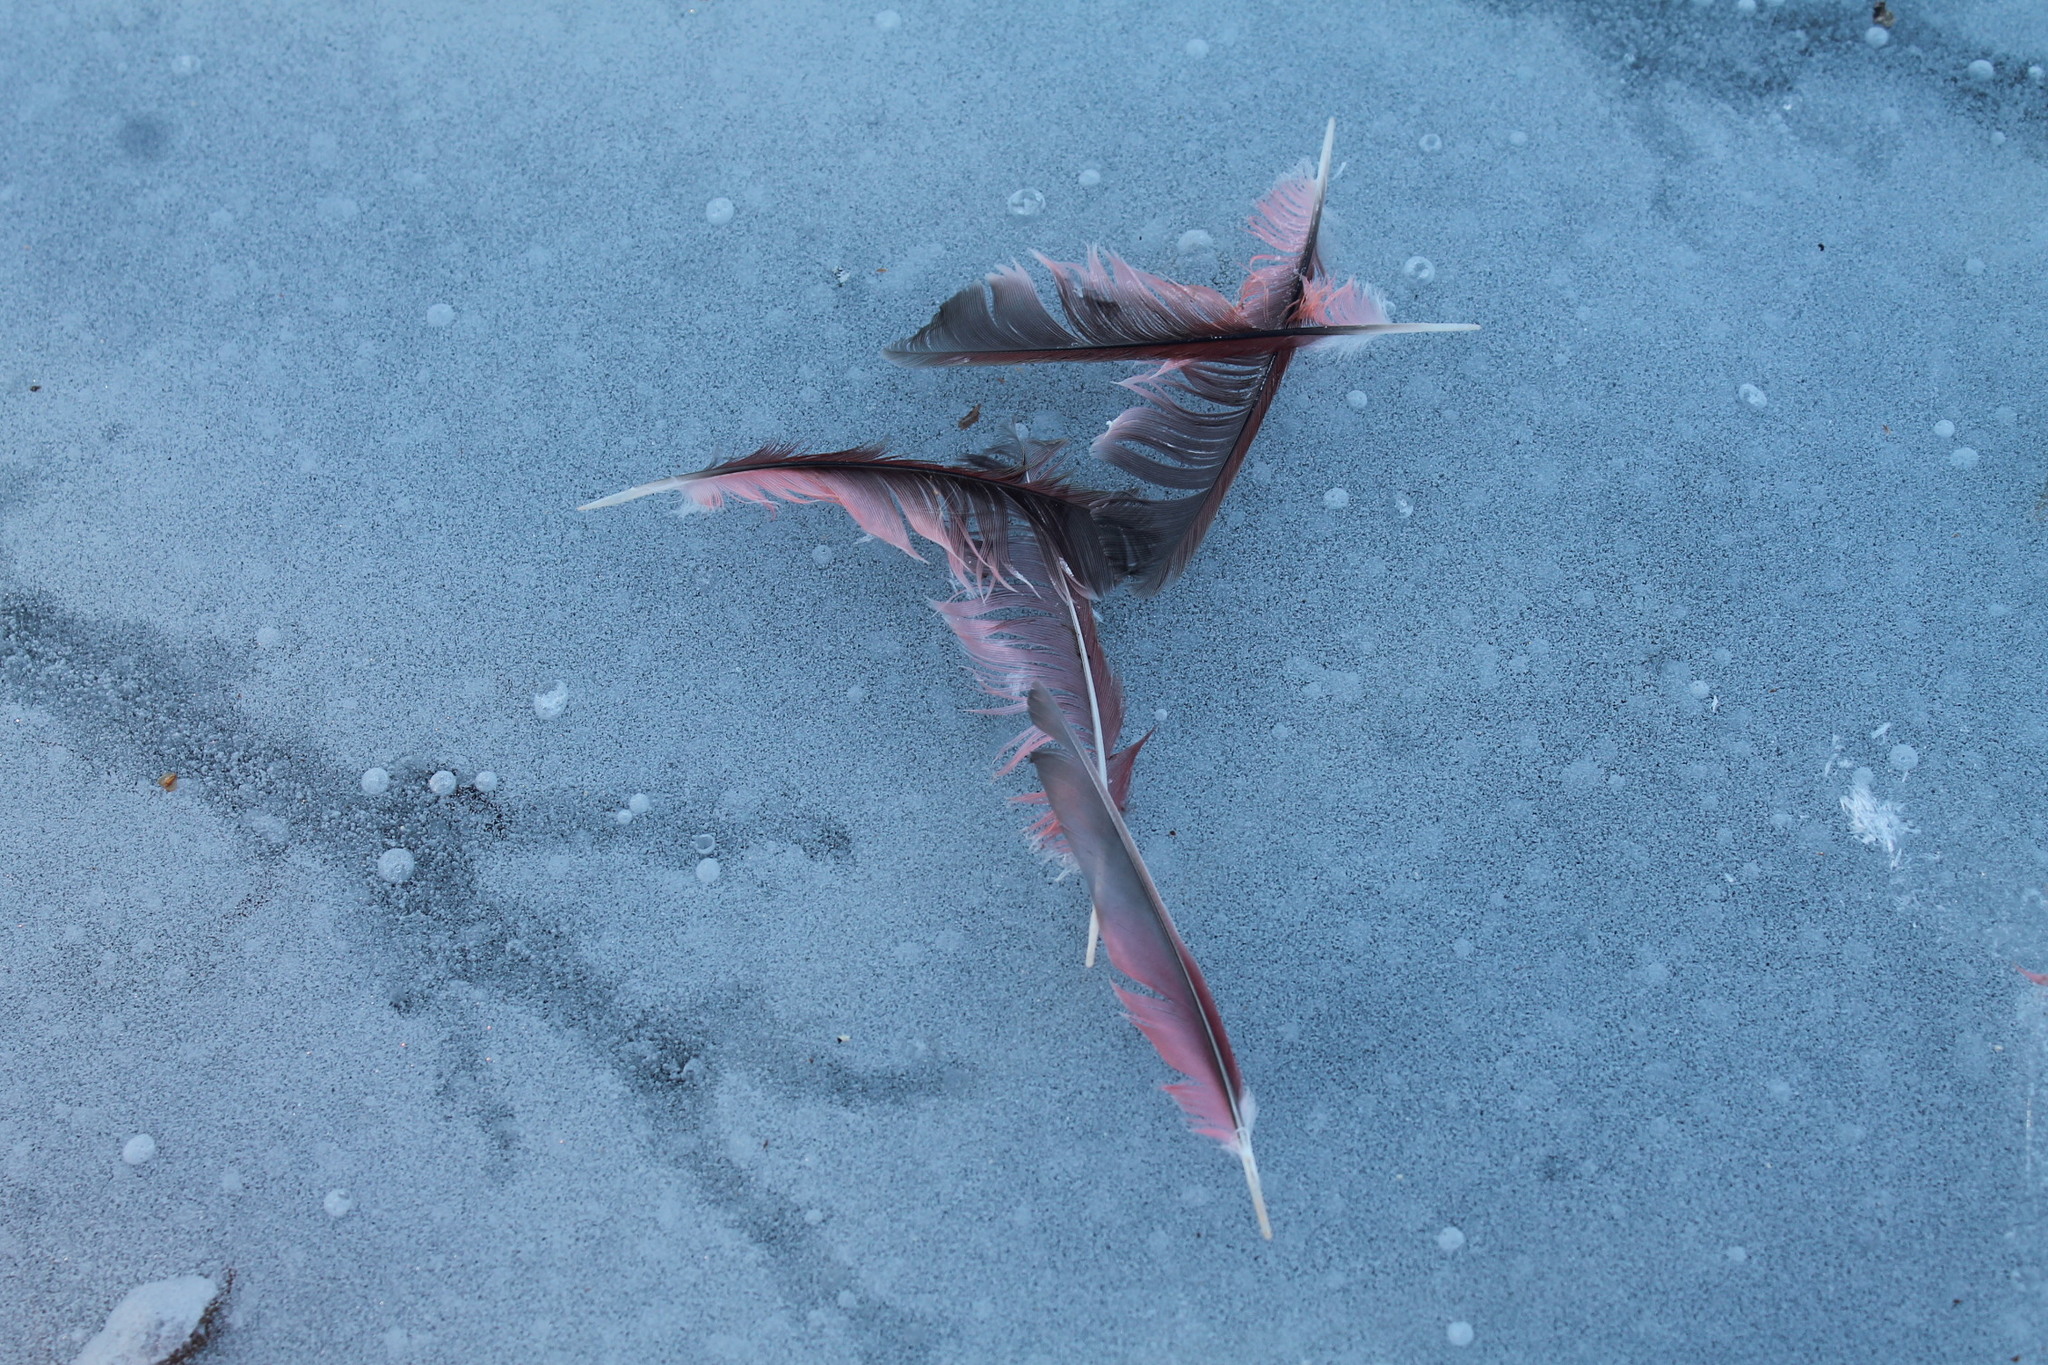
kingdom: Animalia
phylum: Chordata
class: Aves
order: Passeriformes
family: Cardinalidae
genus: Cardinalis
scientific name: Cardinalis cardinalis
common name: Northern cardinal
